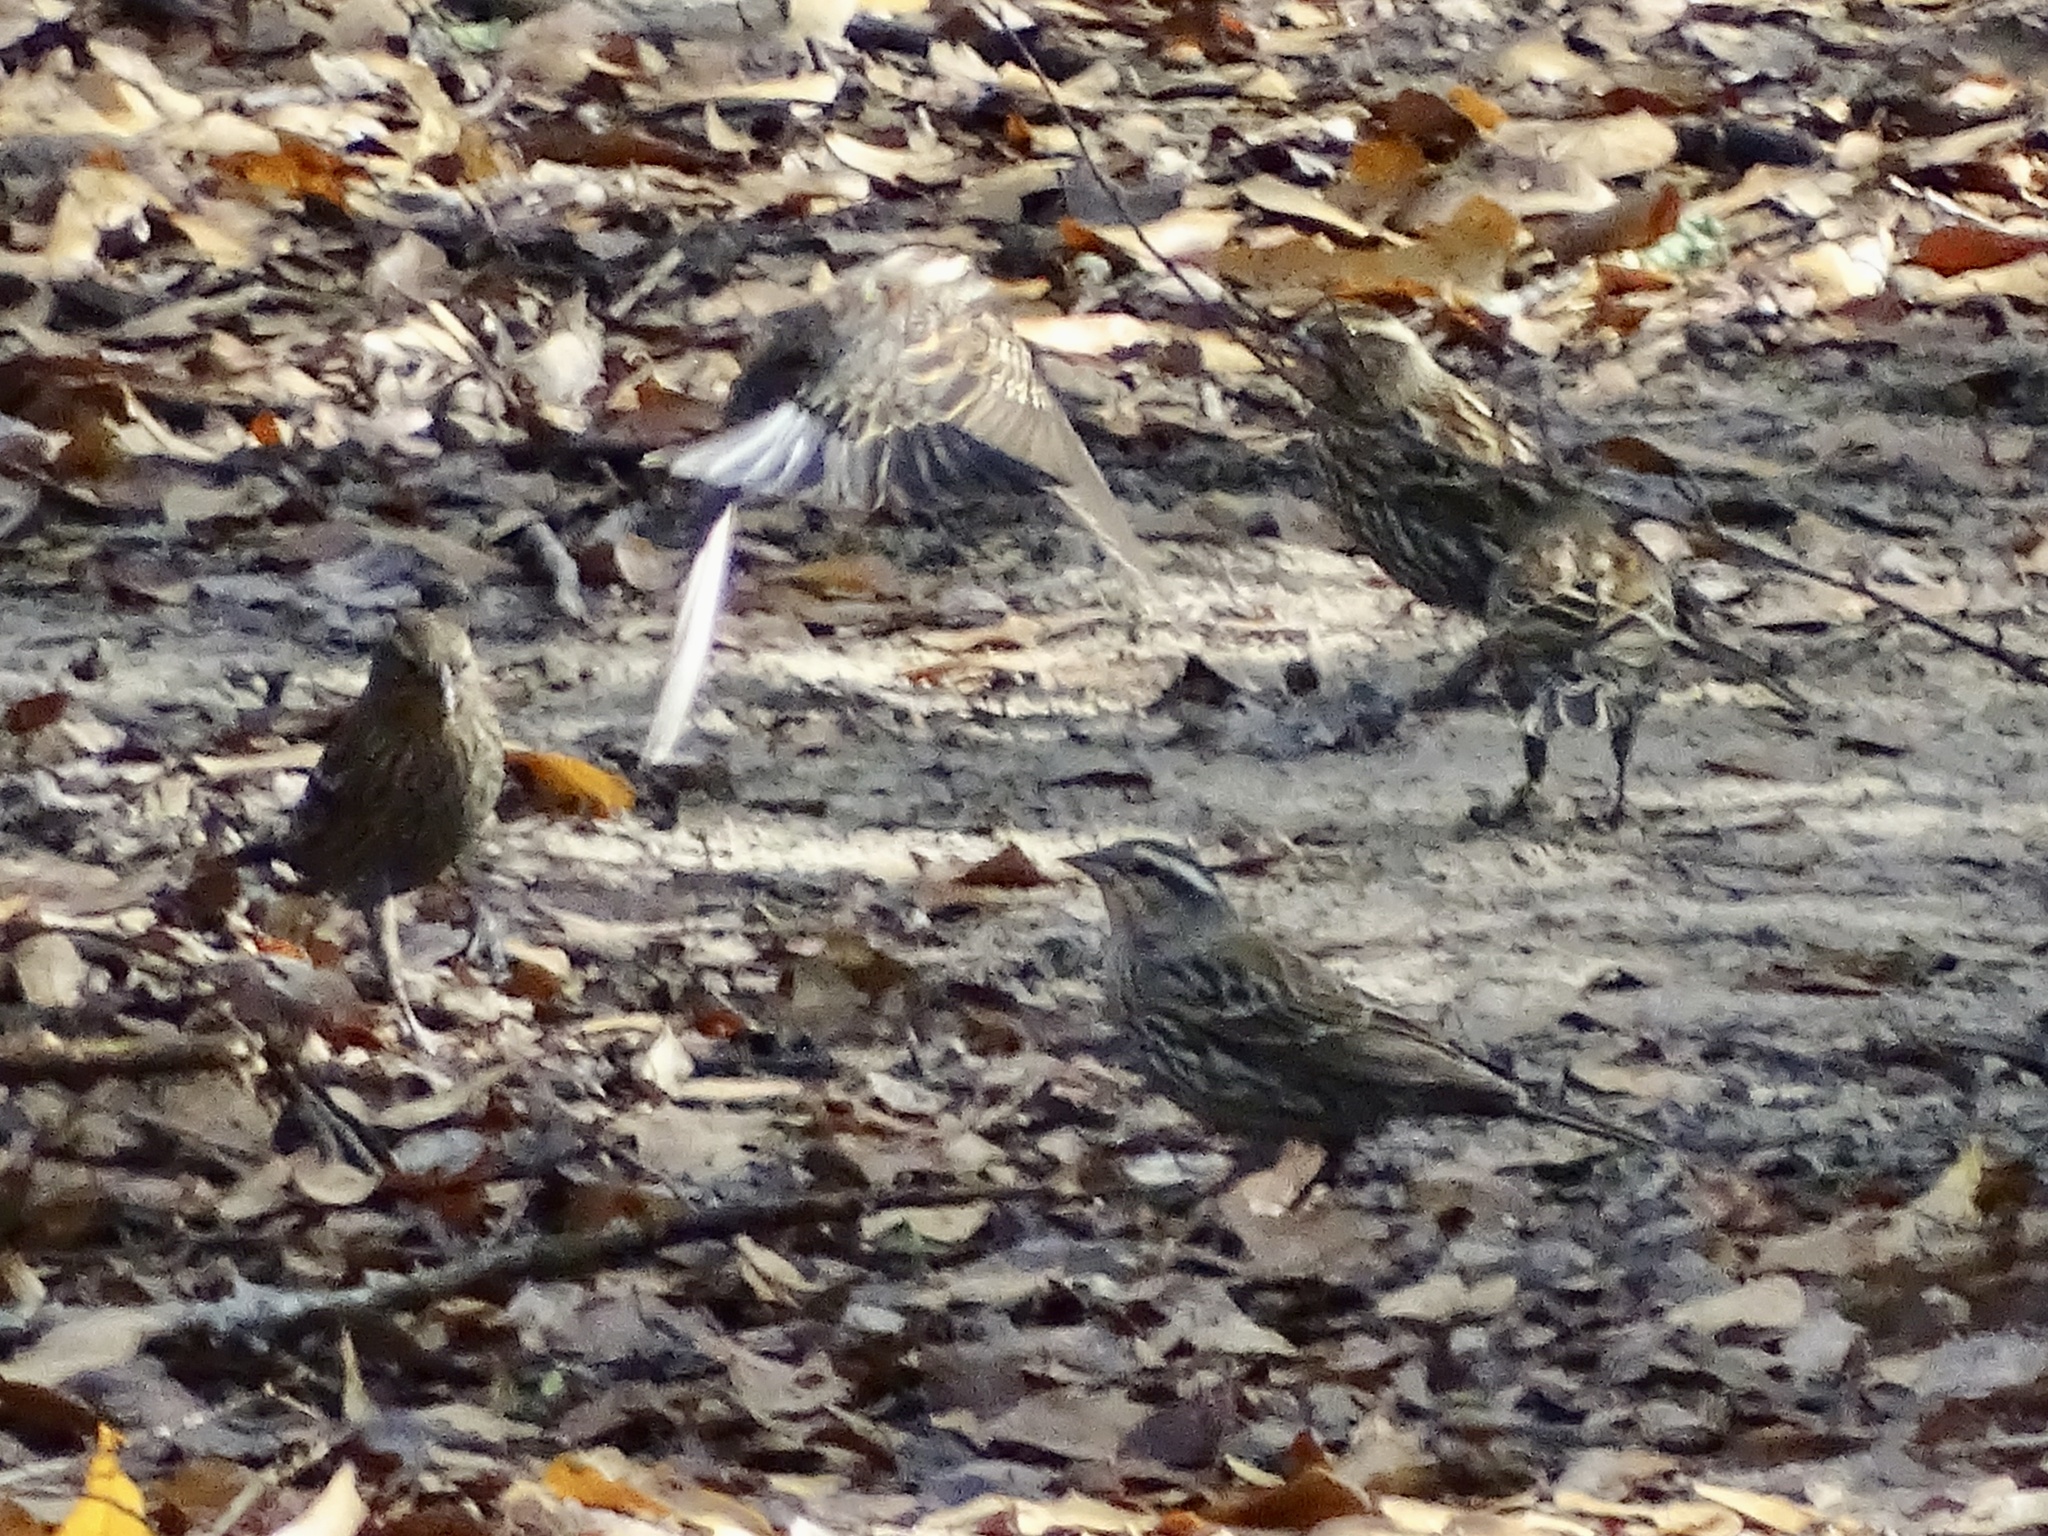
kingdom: Animalia
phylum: Chordata
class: Aves
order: Passeriformes
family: Icteridae
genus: Agelaius
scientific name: Agelaius phoeniceus
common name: Red-winged blackbird
